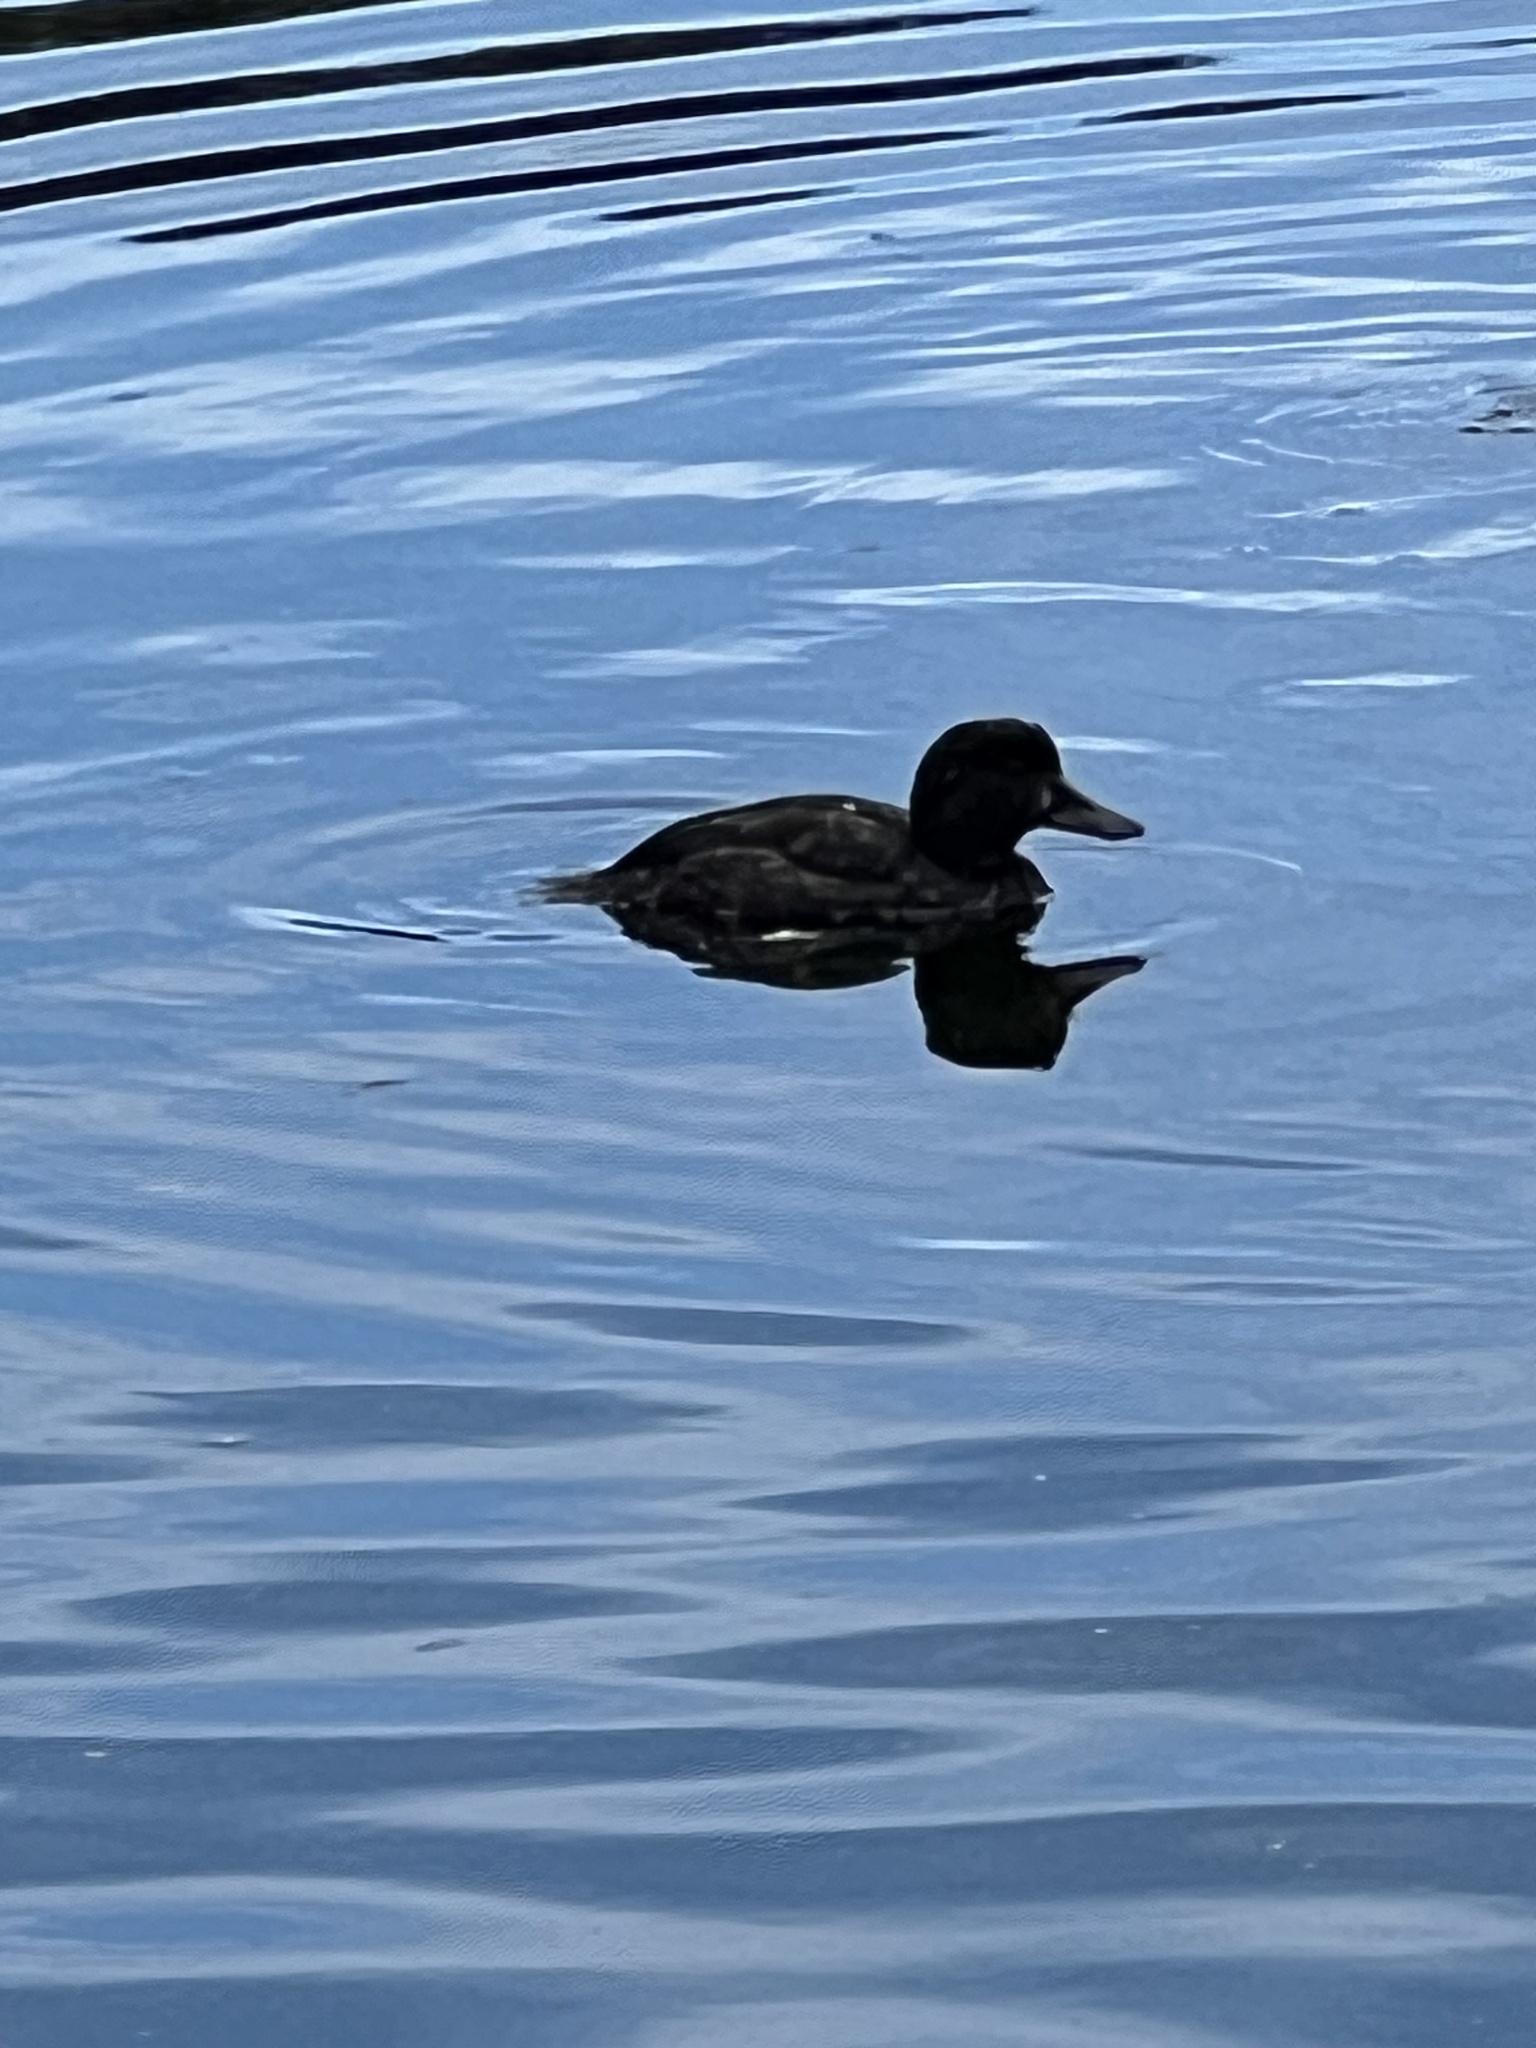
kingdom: Animalia
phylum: Chordata
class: Aves
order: Anseriformes
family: Anatidae
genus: Aythya
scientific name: Aythya novaeseelandiae
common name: New zealand scaup
